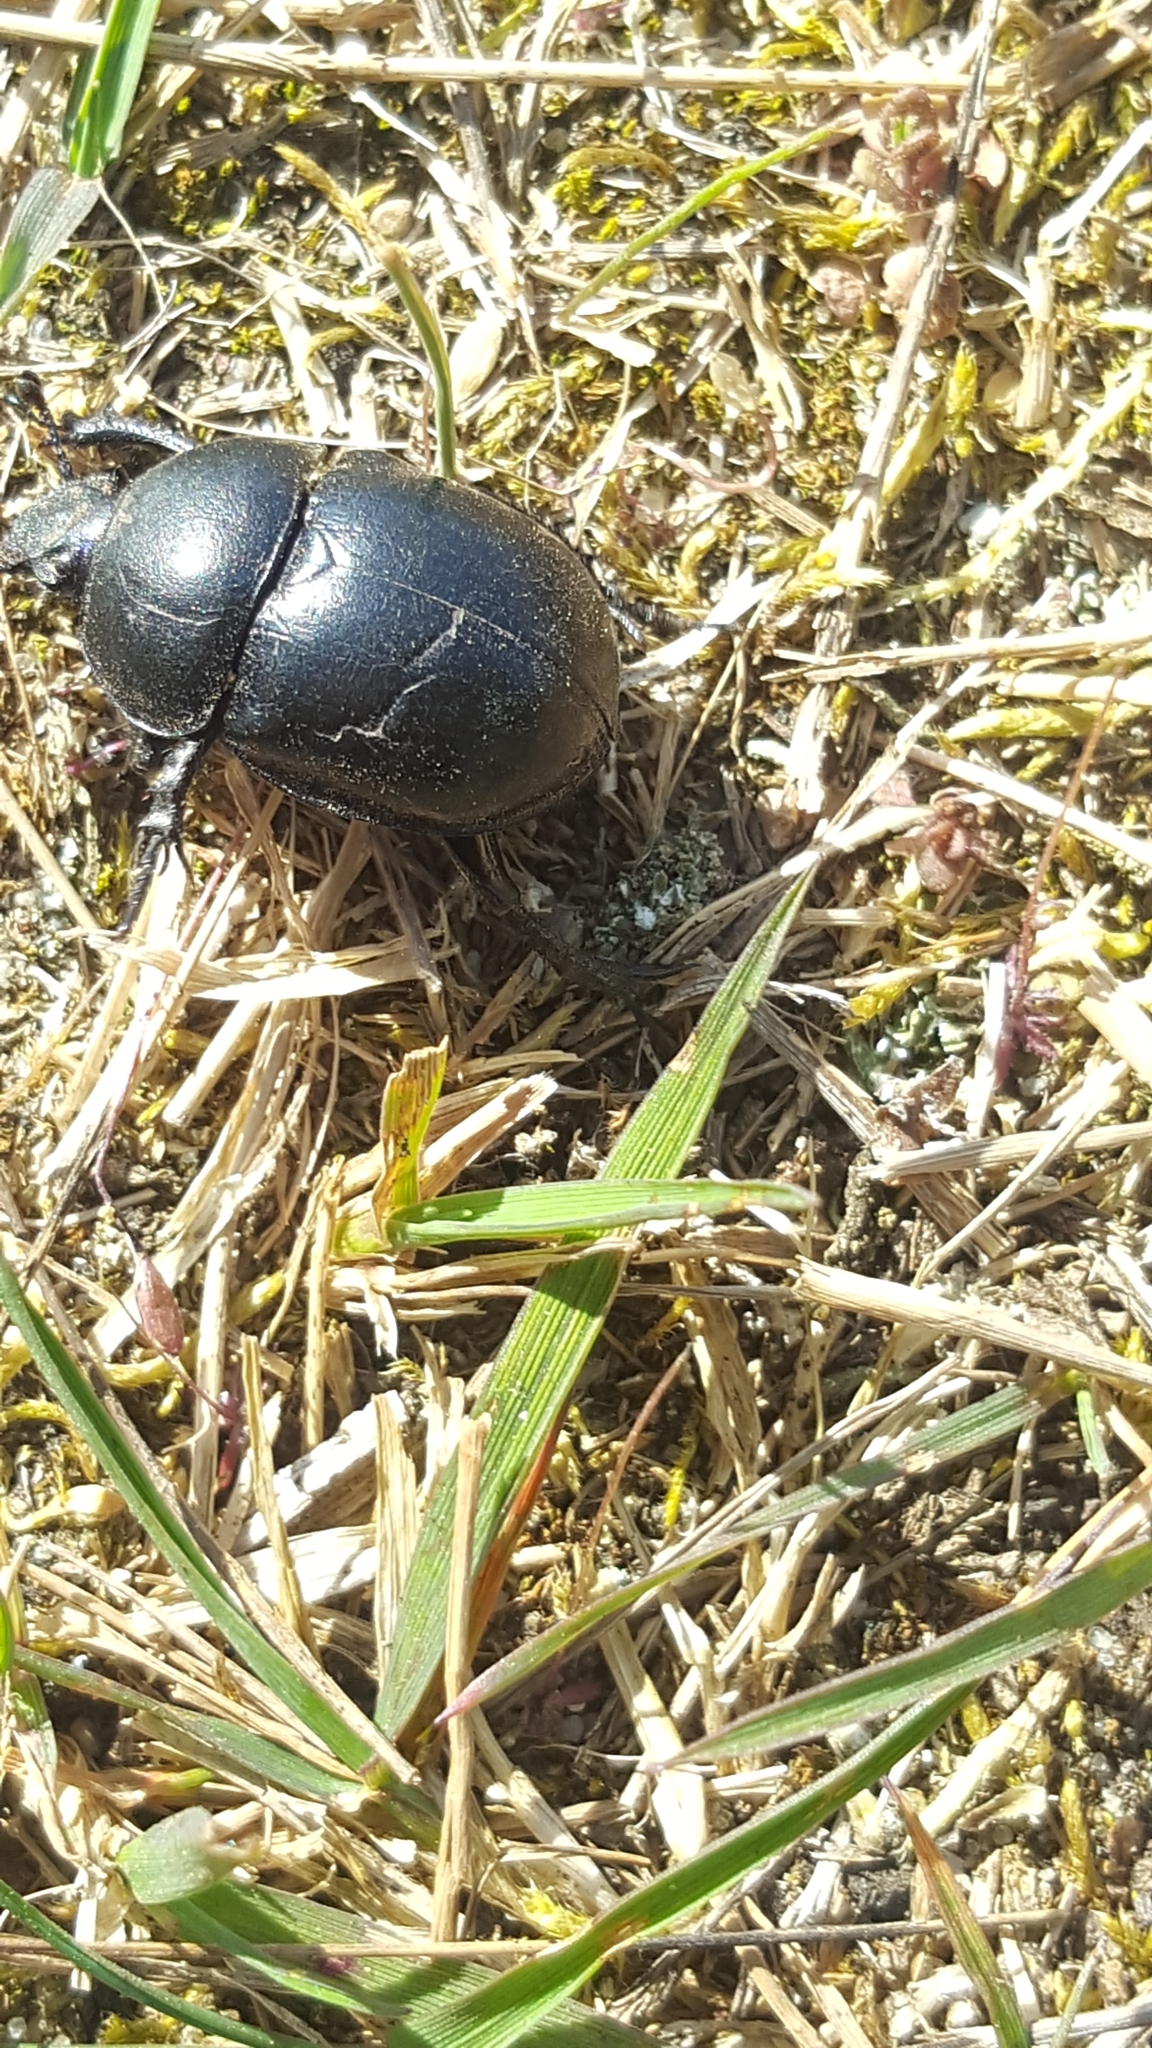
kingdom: Animalia
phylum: Arthropoda
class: Insecta
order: Coleoptera
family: Geotrupidae
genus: Trypocopris
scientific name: Trypocopris vernalis
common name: Spring dumbledor
